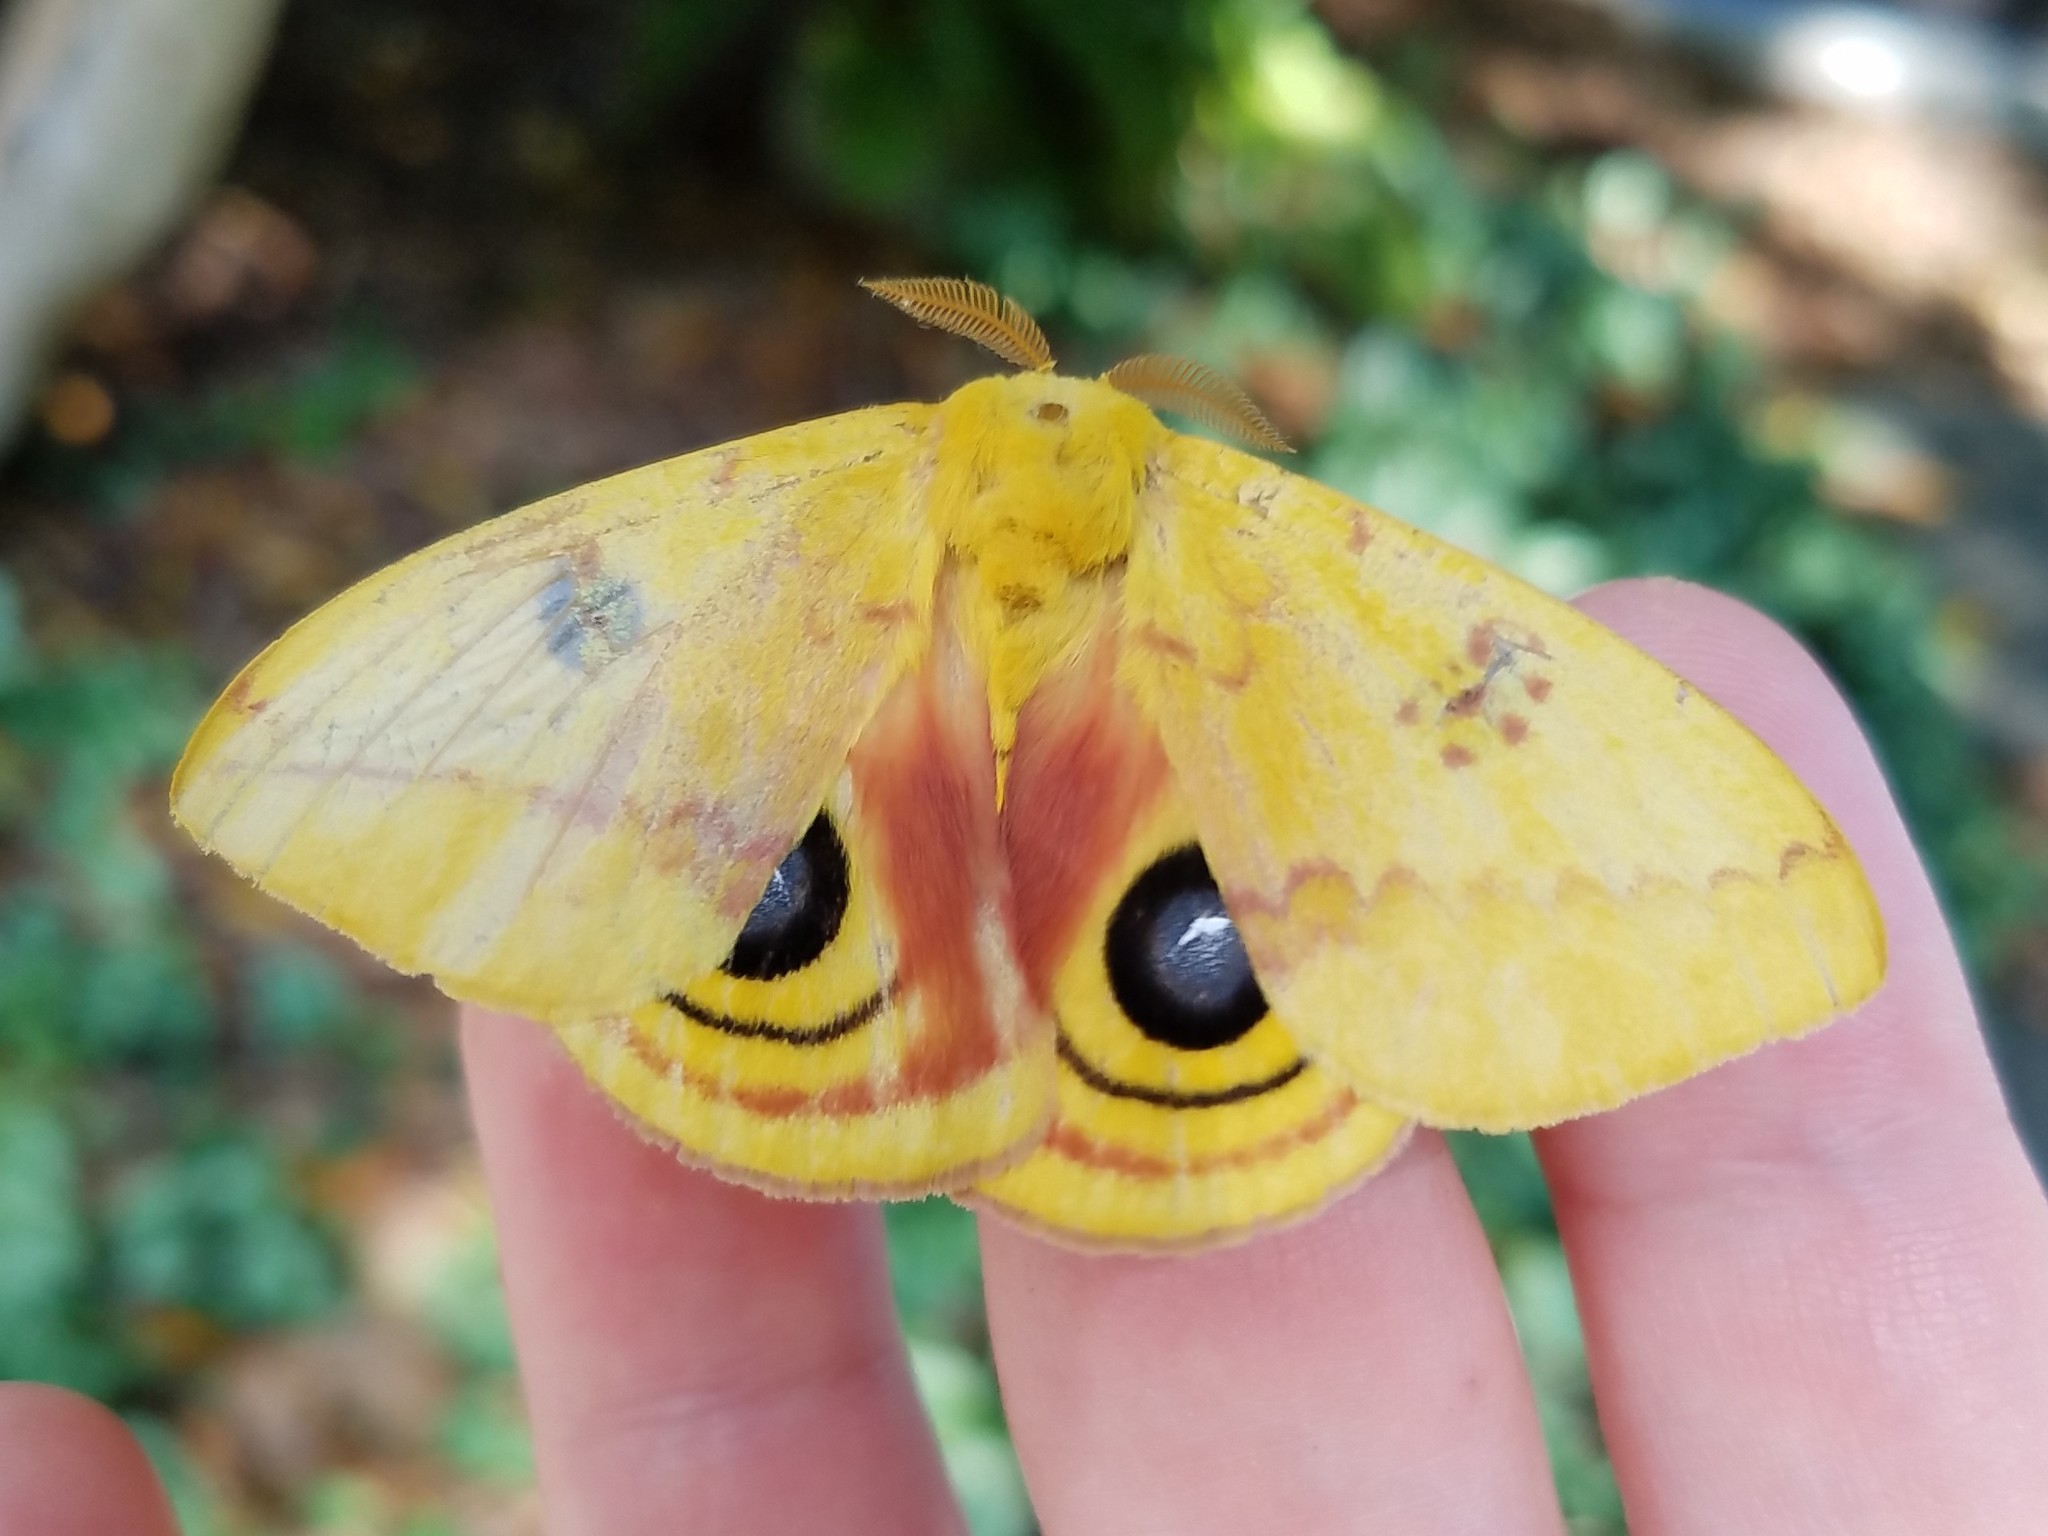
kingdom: Animalia
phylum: Arthropoda
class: Insecta
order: Lepidoptera
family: Saturniidae
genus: Automeris
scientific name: Automeris io
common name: Io moth
